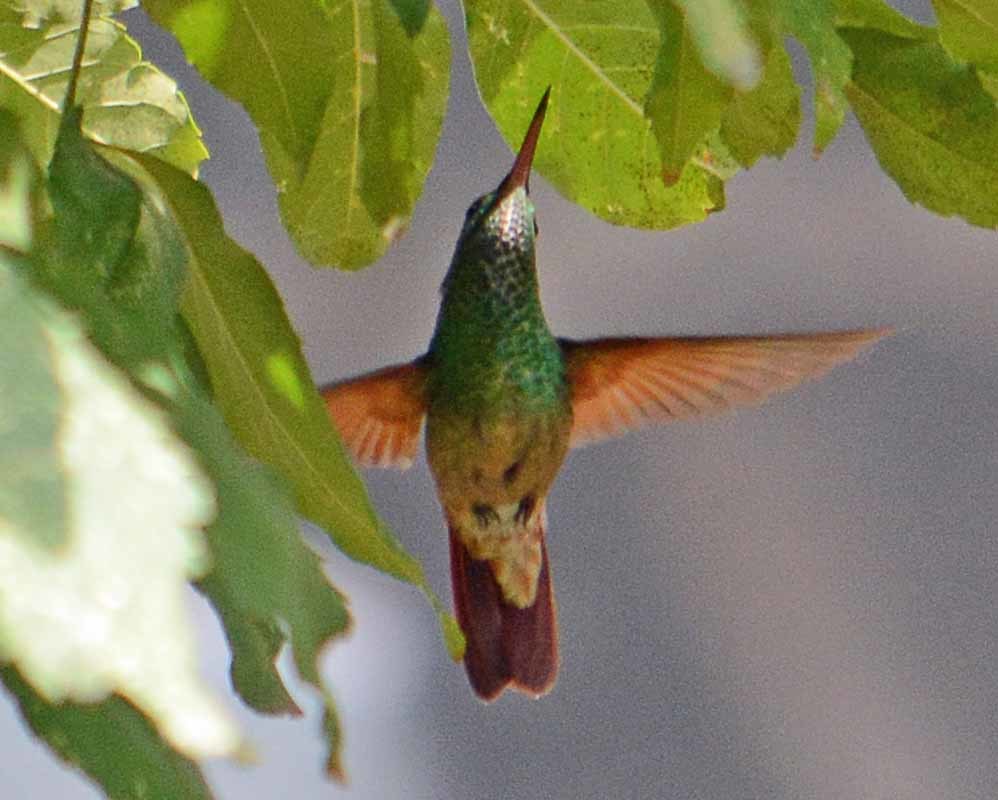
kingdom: Animalia
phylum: Chordata
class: Aves
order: Apodiformes
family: Trochilidae
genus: Saucerottia
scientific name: Saucerottia beryllina
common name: Berylline hummingbird
